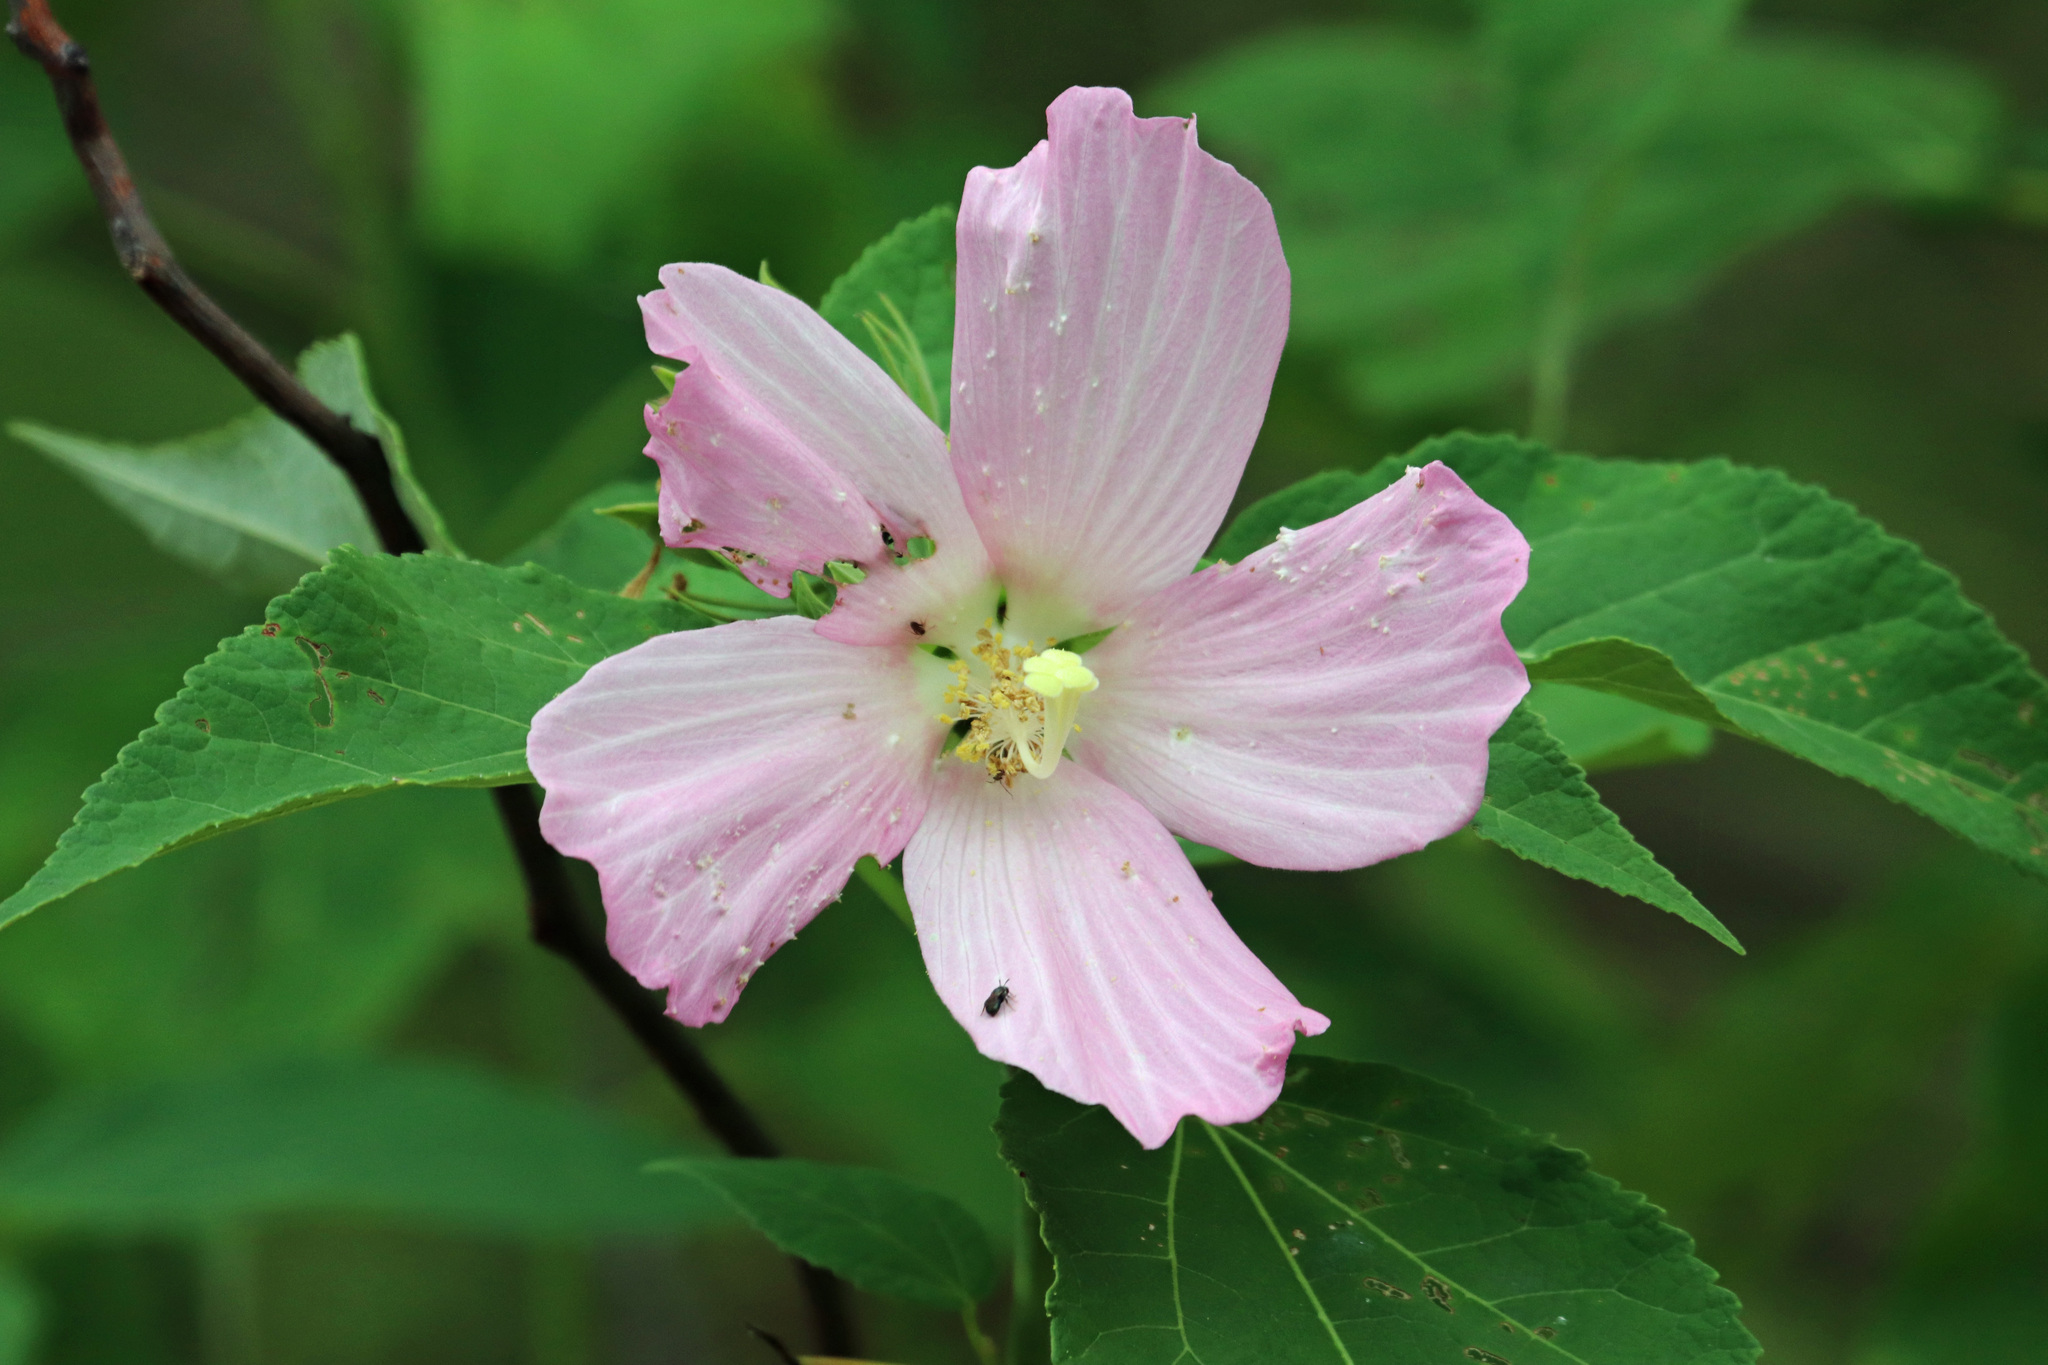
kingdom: Plantae
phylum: Tracheophyta
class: Magnoliopsida
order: Malvales
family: Malvaceae
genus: Hibiscus
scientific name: Hibiscus moscheutos
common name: Common rose-mallow
